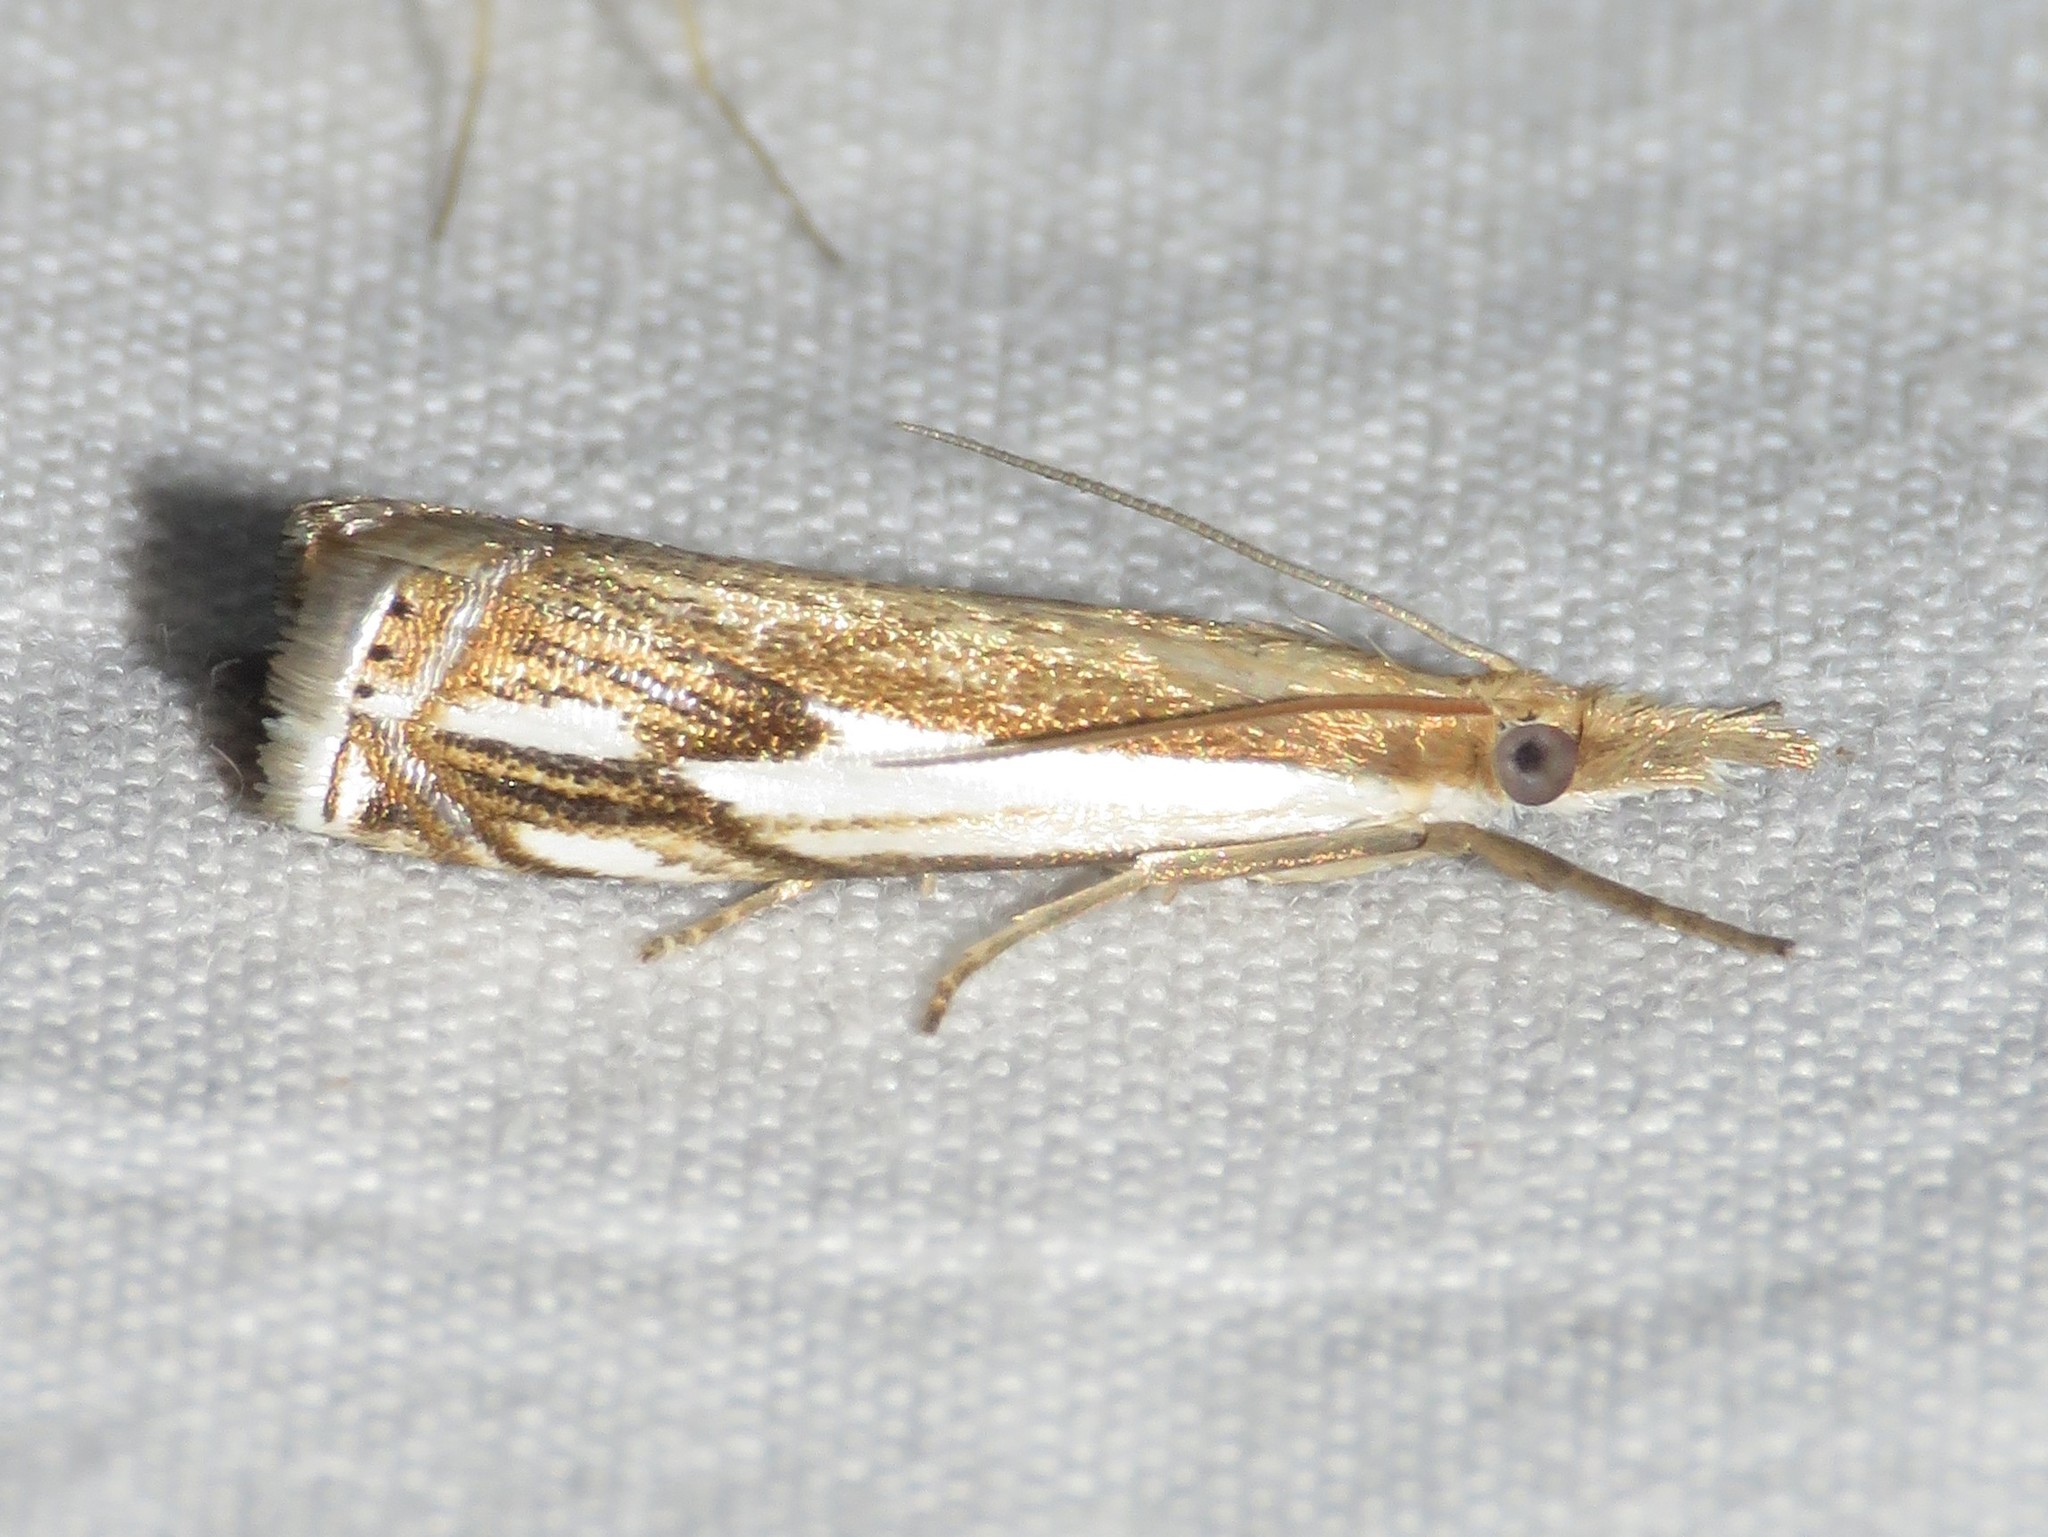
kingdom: Animalia
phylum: Arthropoda
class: Insecta
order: Lepidoptera
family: Crambidae
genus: Crambus
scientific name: Crambus agitatellus
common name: Double-banded grass-veneer
